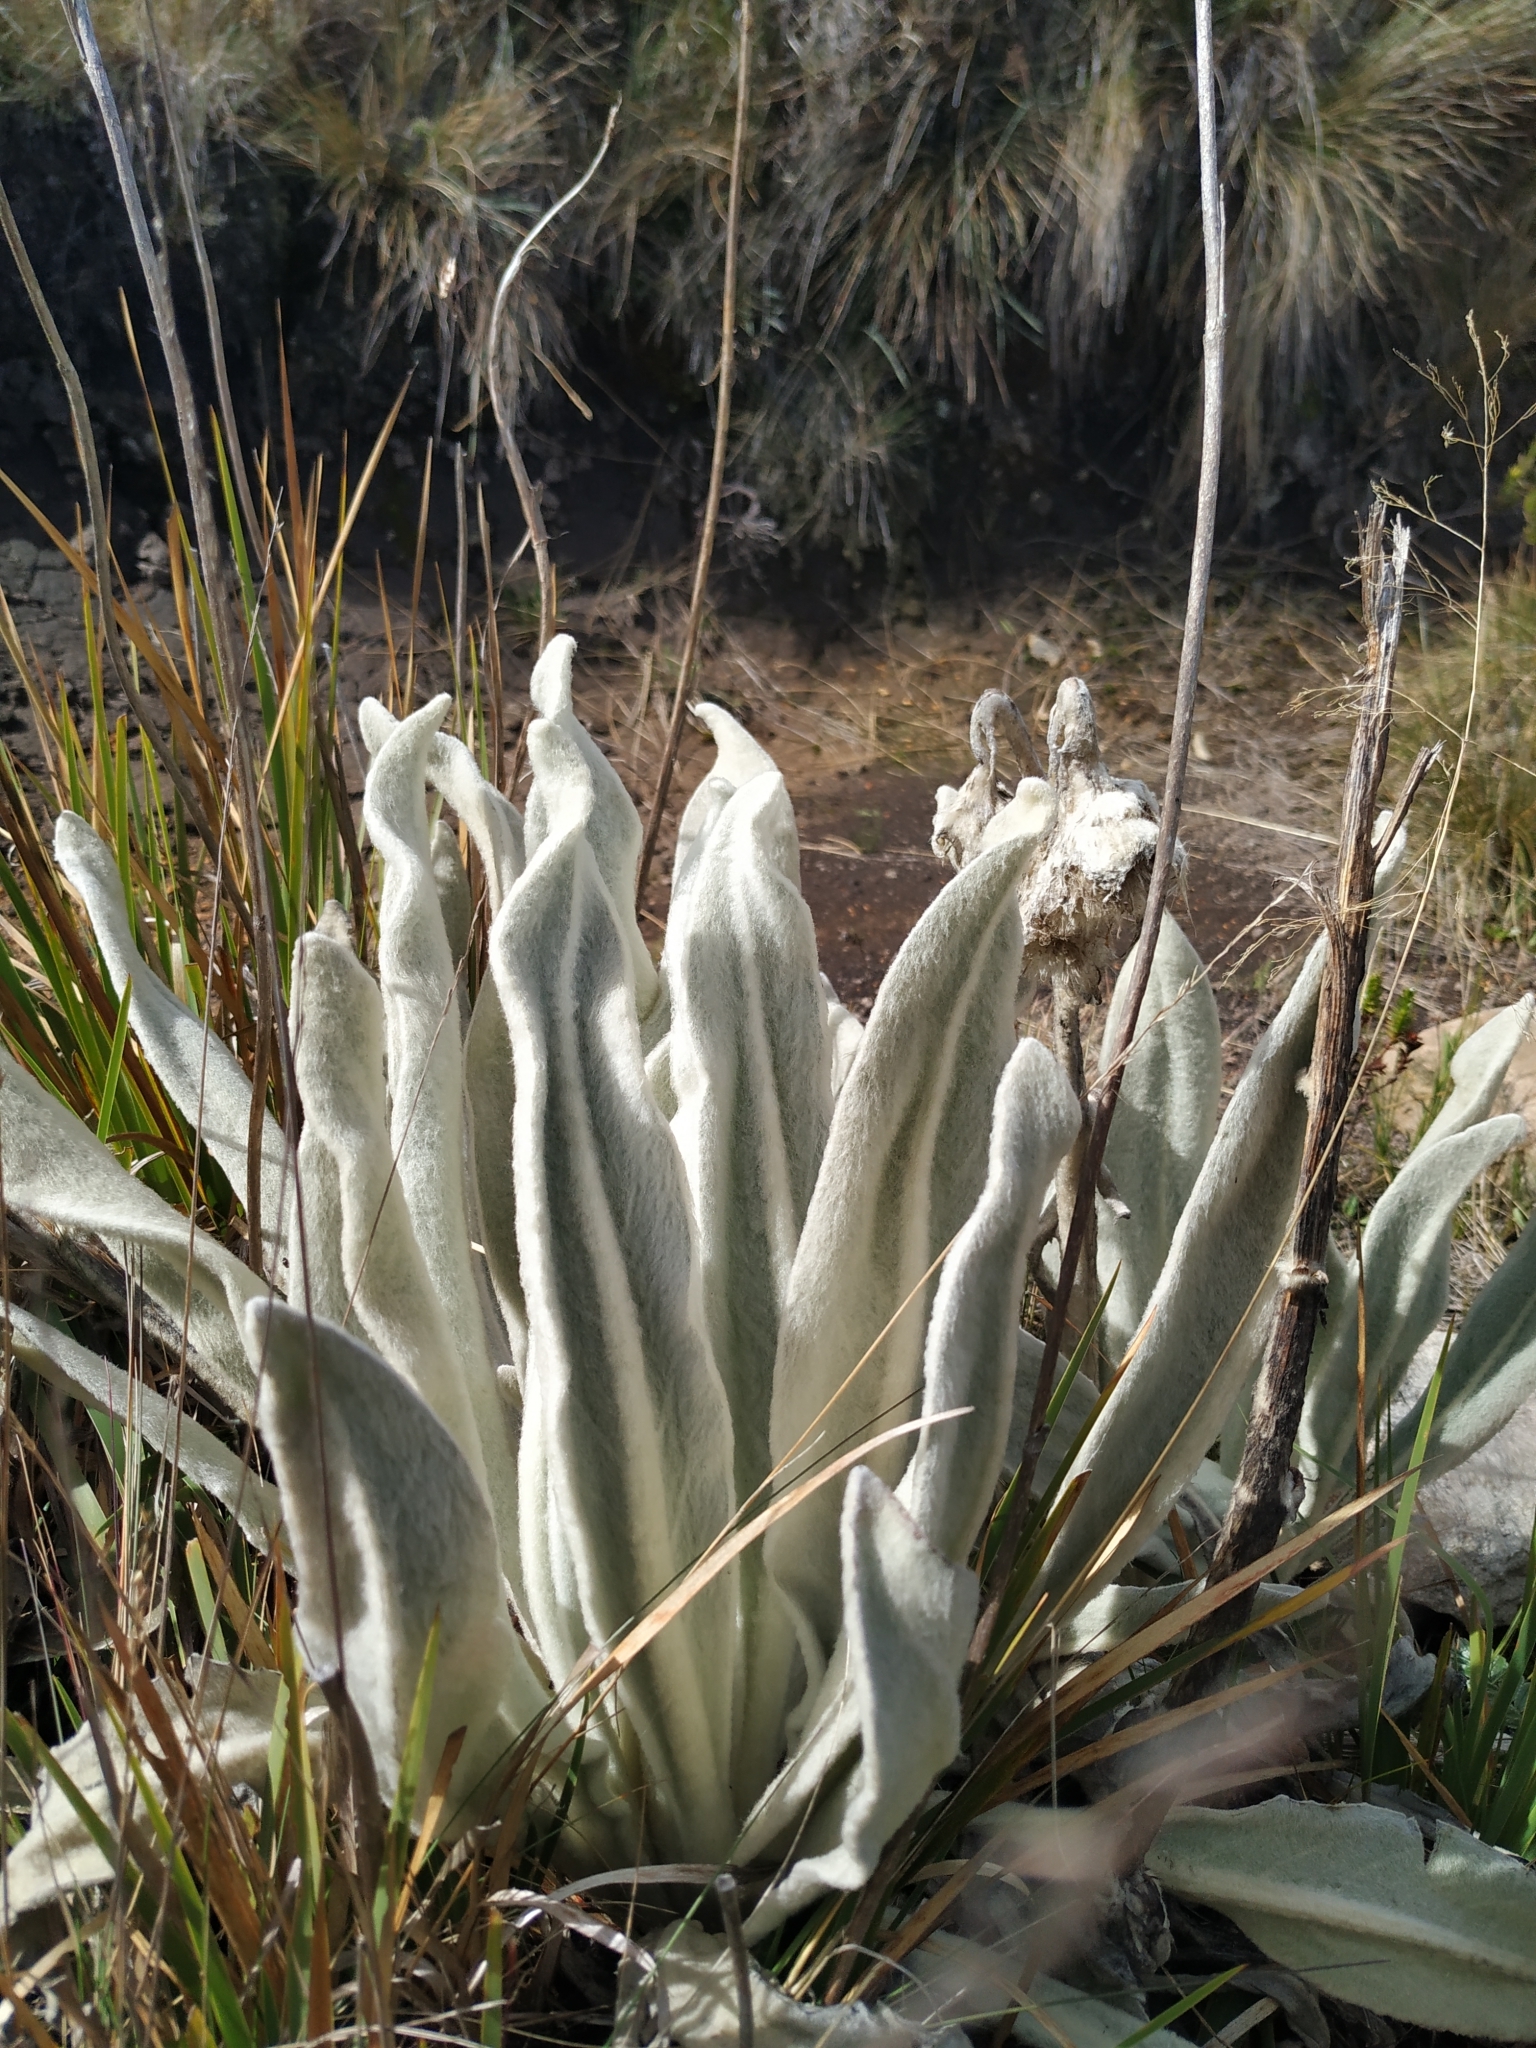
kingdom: Plantae
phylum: Tracheophyta
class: Magnoliopsida
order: Asterales
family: Asteraceae
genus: Culcitium
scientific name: Culcitium canescens
